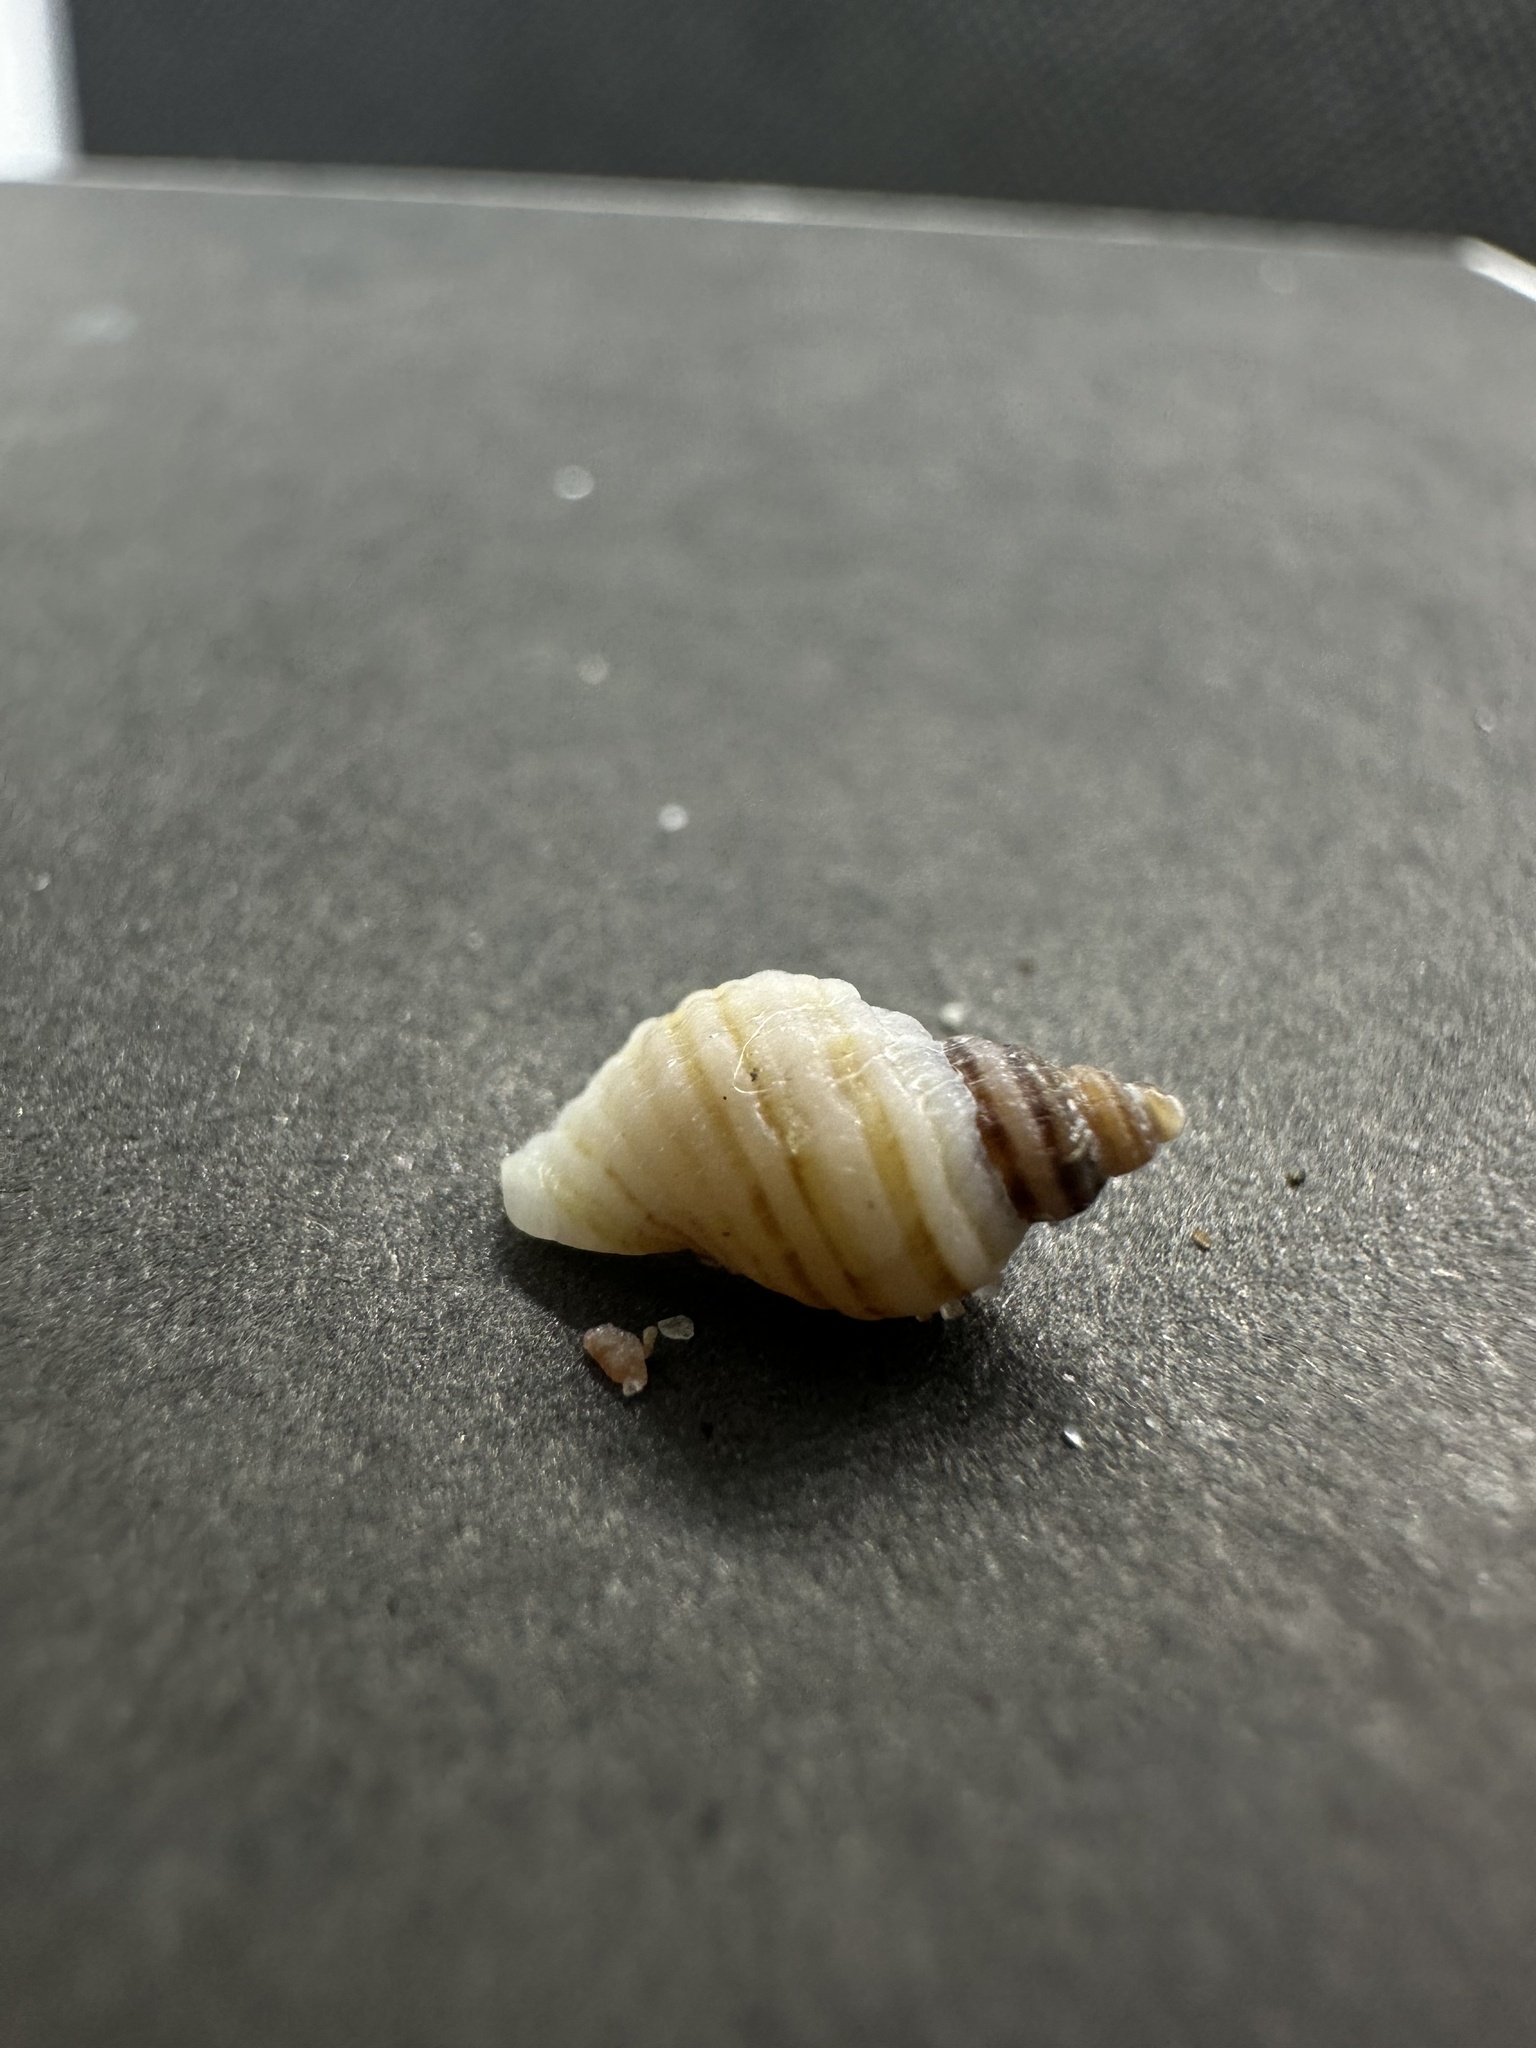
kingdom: Animalia
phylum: Mollusca
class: Gastropoda
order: Neogastropoda
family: Muricidae
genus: Nucella
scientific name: Nucella lapillus
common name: Dog whelk
